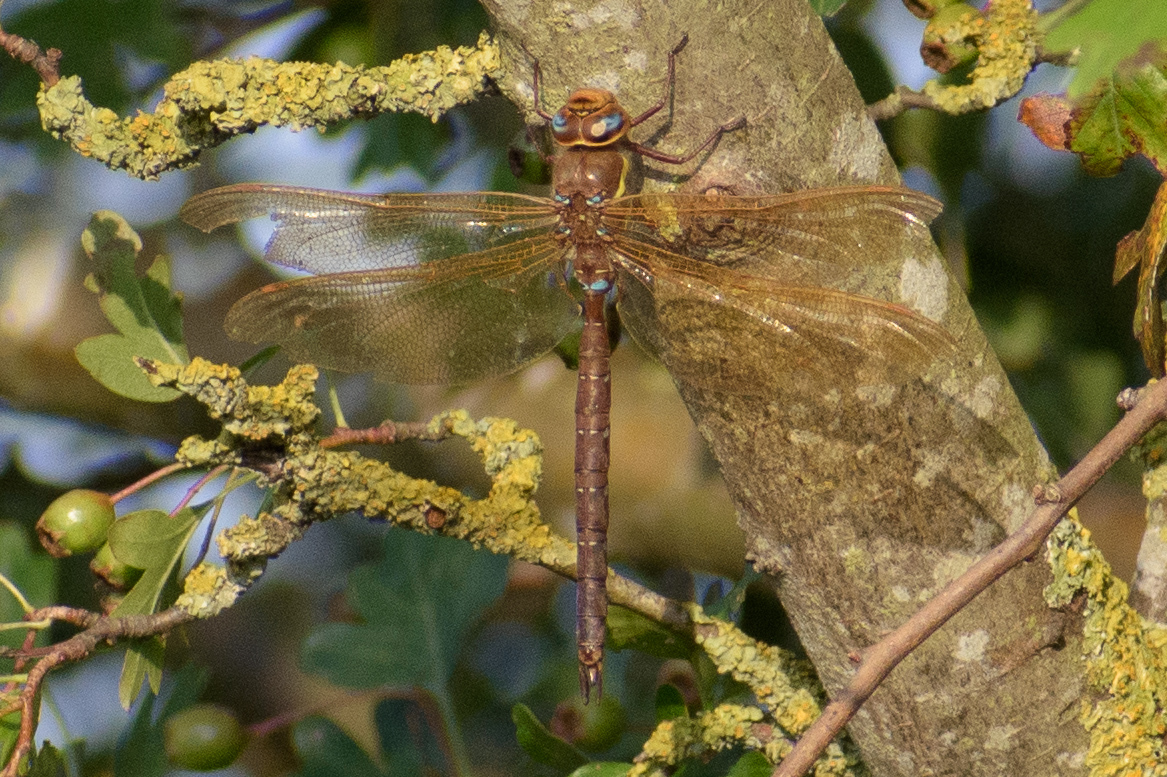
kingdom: Animalia
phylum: Arthropoda
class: Insecta
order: Odonata
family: Aeshnidae
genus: Aeshna
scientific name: Aeshna grandis
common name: Brown hawker
